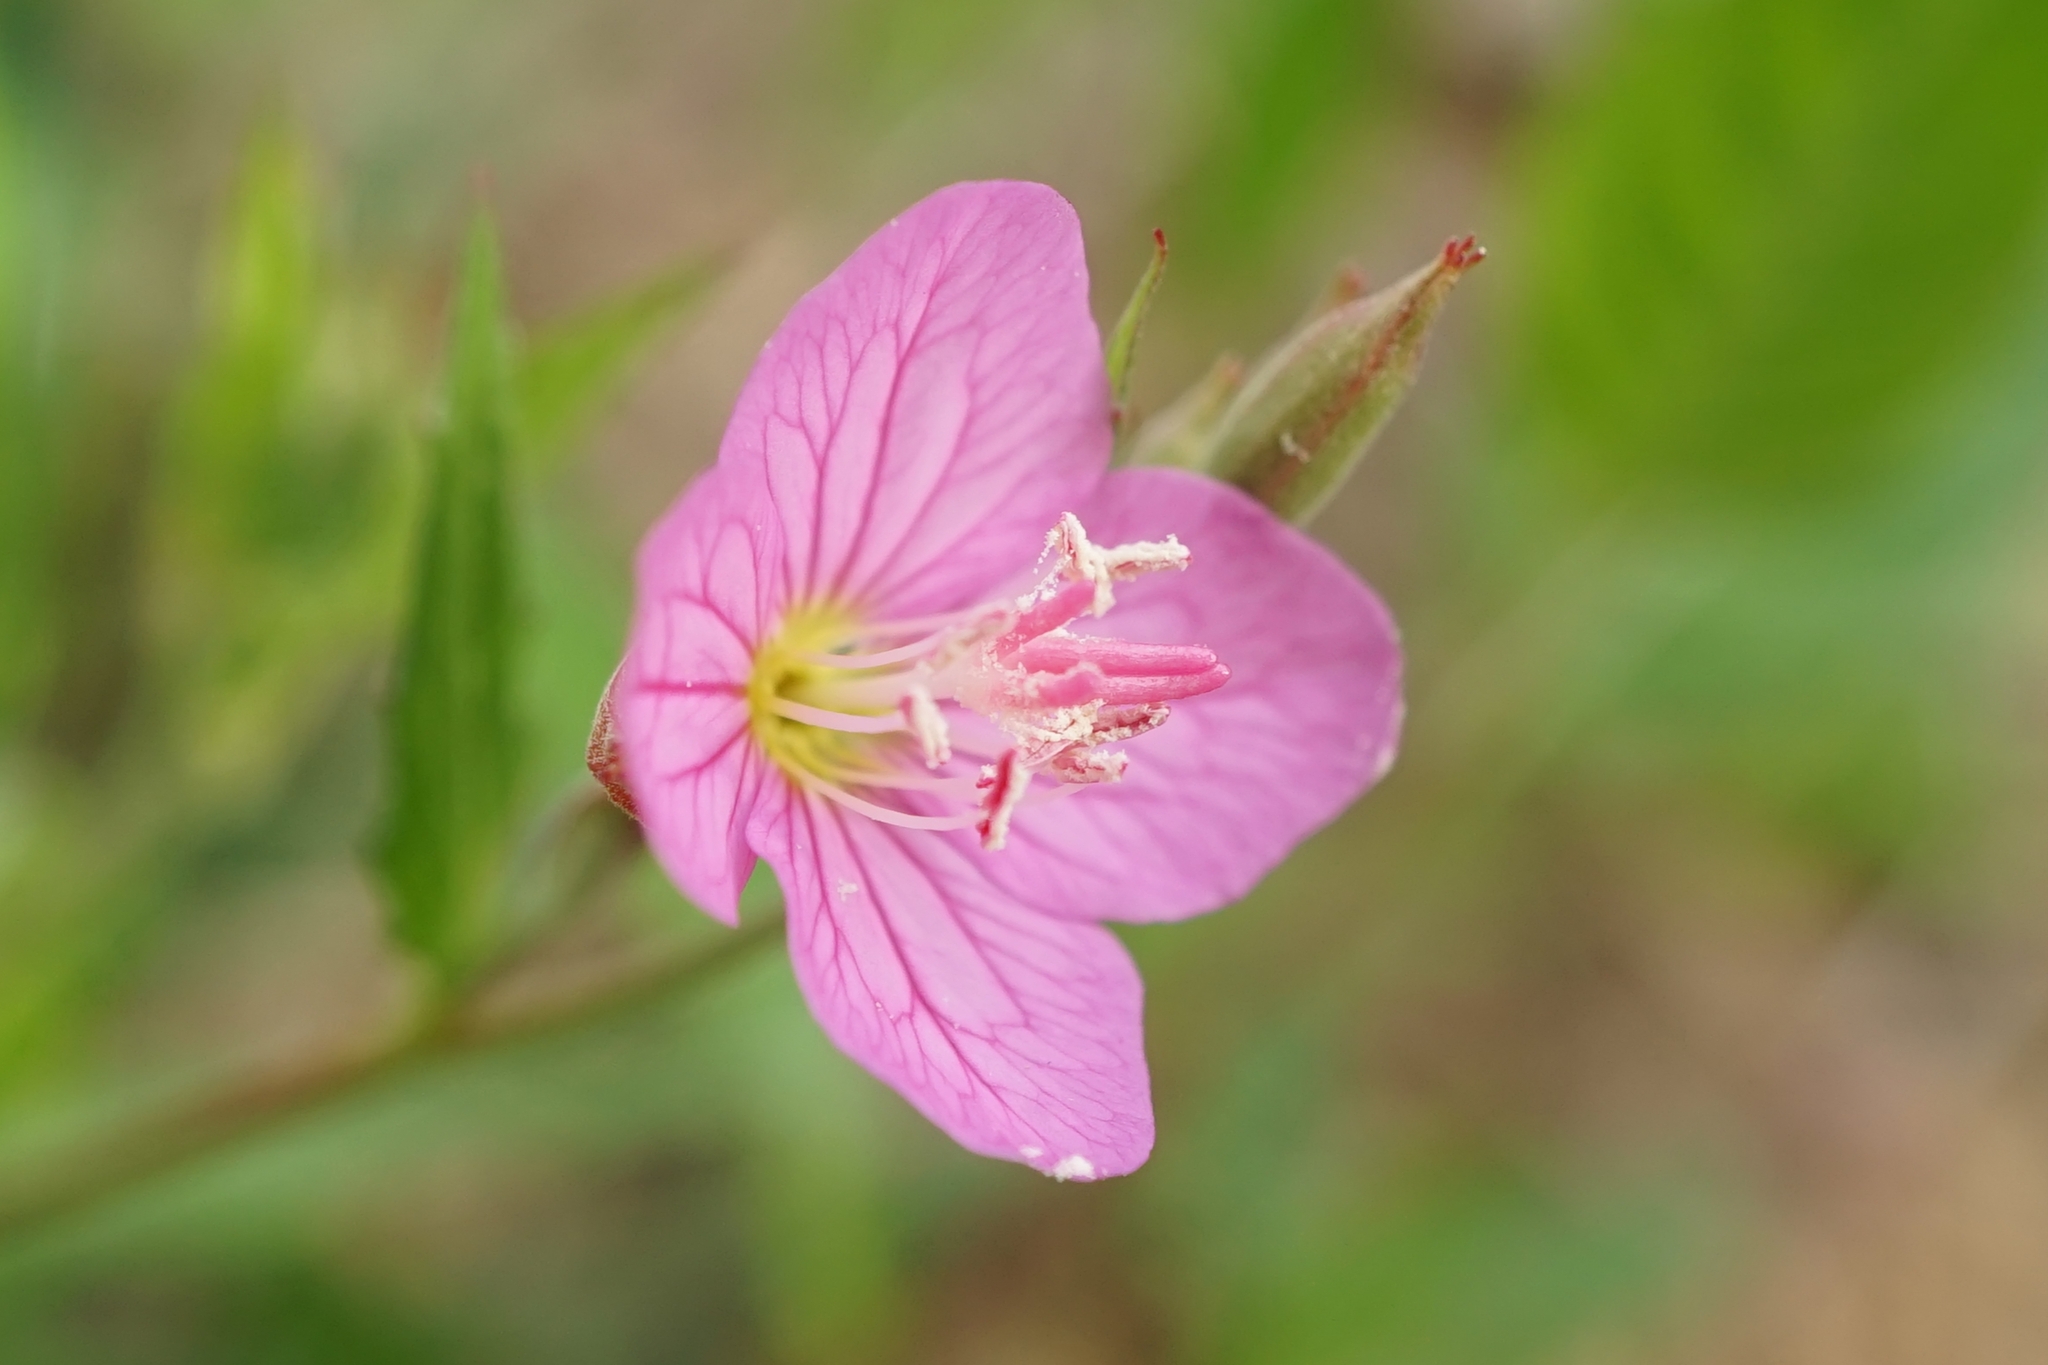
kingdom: Plantae
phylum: Tracheophyta
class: Magnoliopsida
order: Myrtales
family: Onagraceae
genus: Oenothera
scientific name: Oenothera rosea
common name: Rosy evening-primrose
